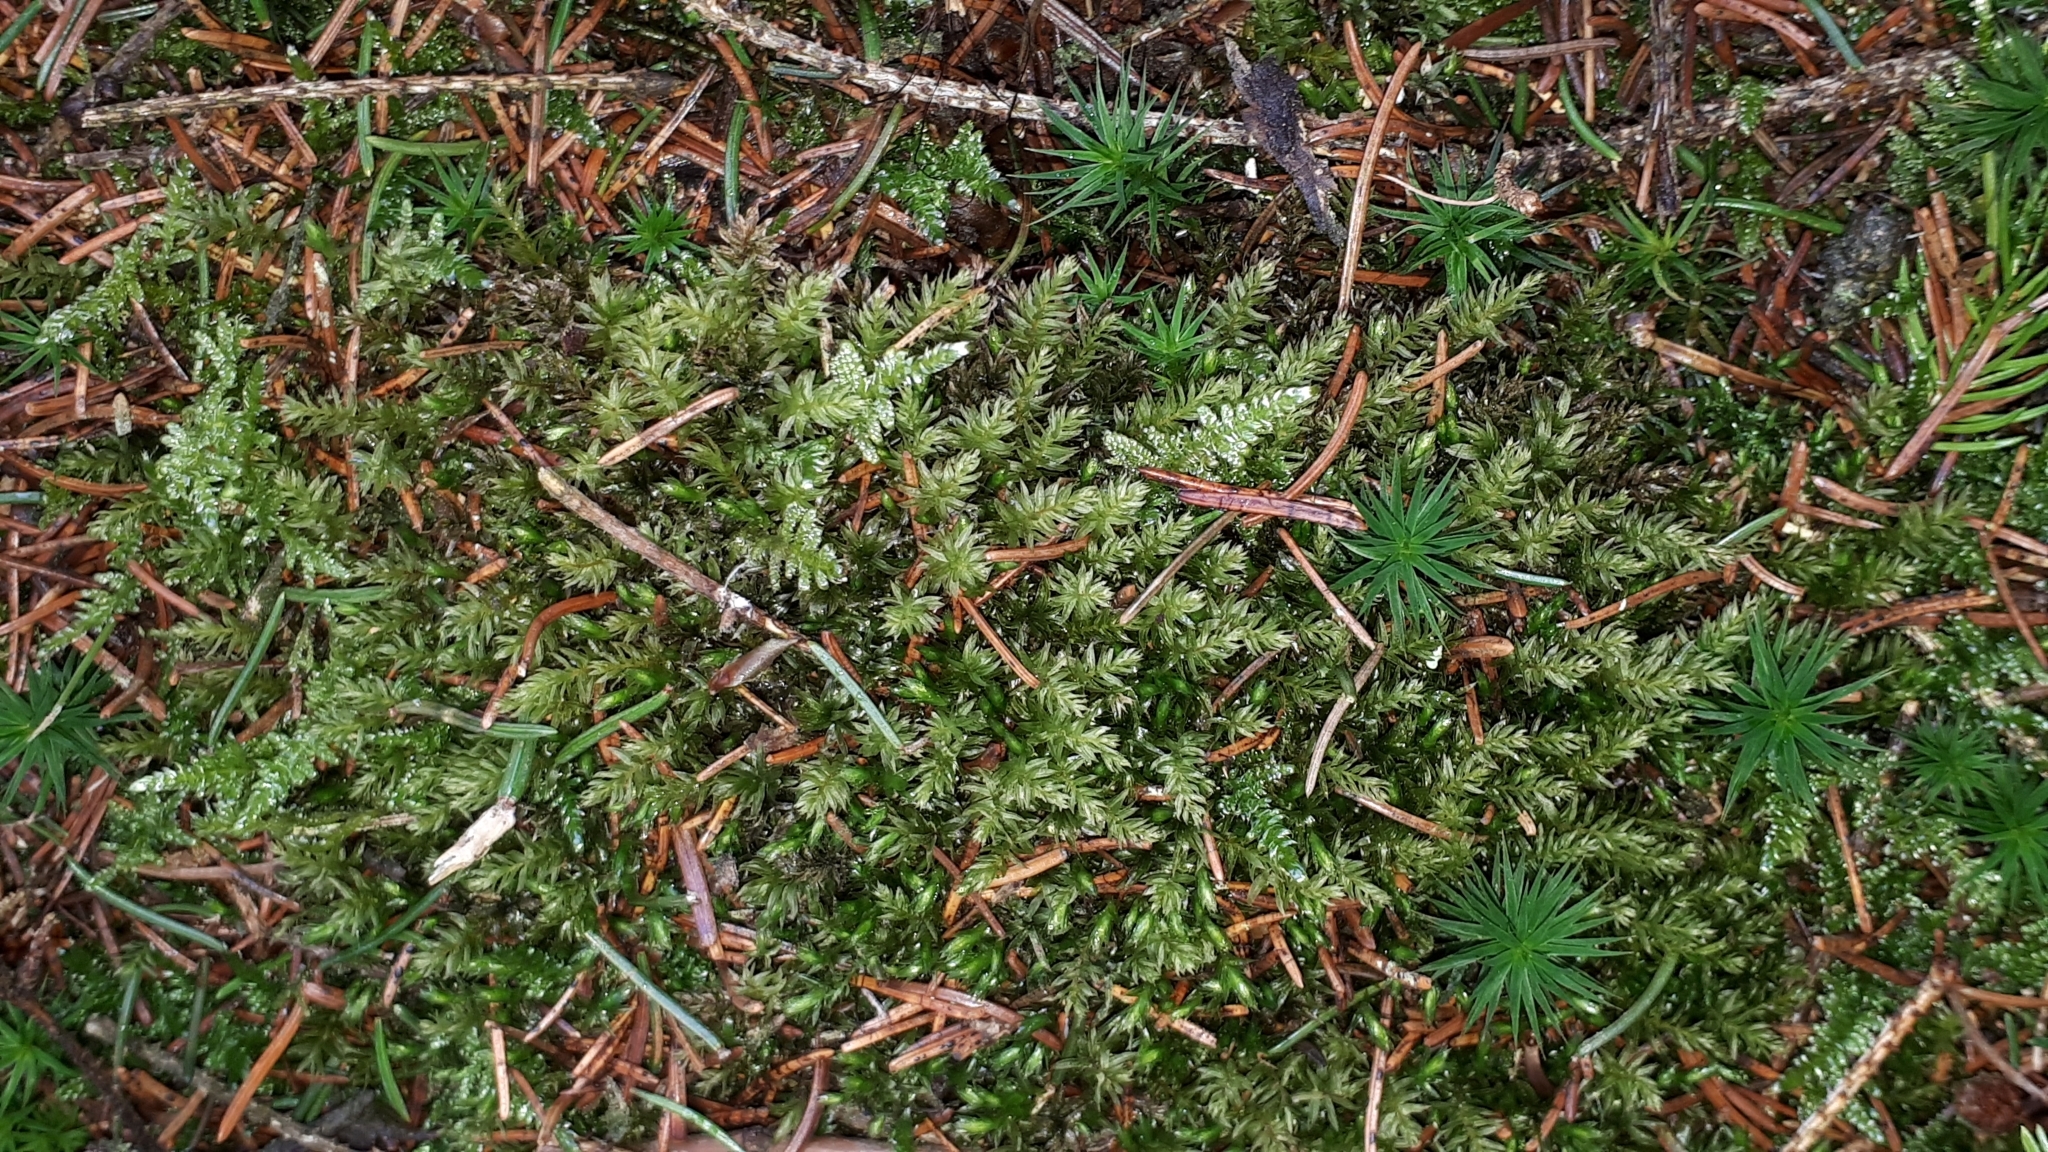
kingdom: Plantae
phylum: Bryophyta
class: Bryopsida
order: Bryales
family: Mniaceae
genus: Mnium
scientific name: Mnium hornum
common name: Swan's-neck leafy moss
